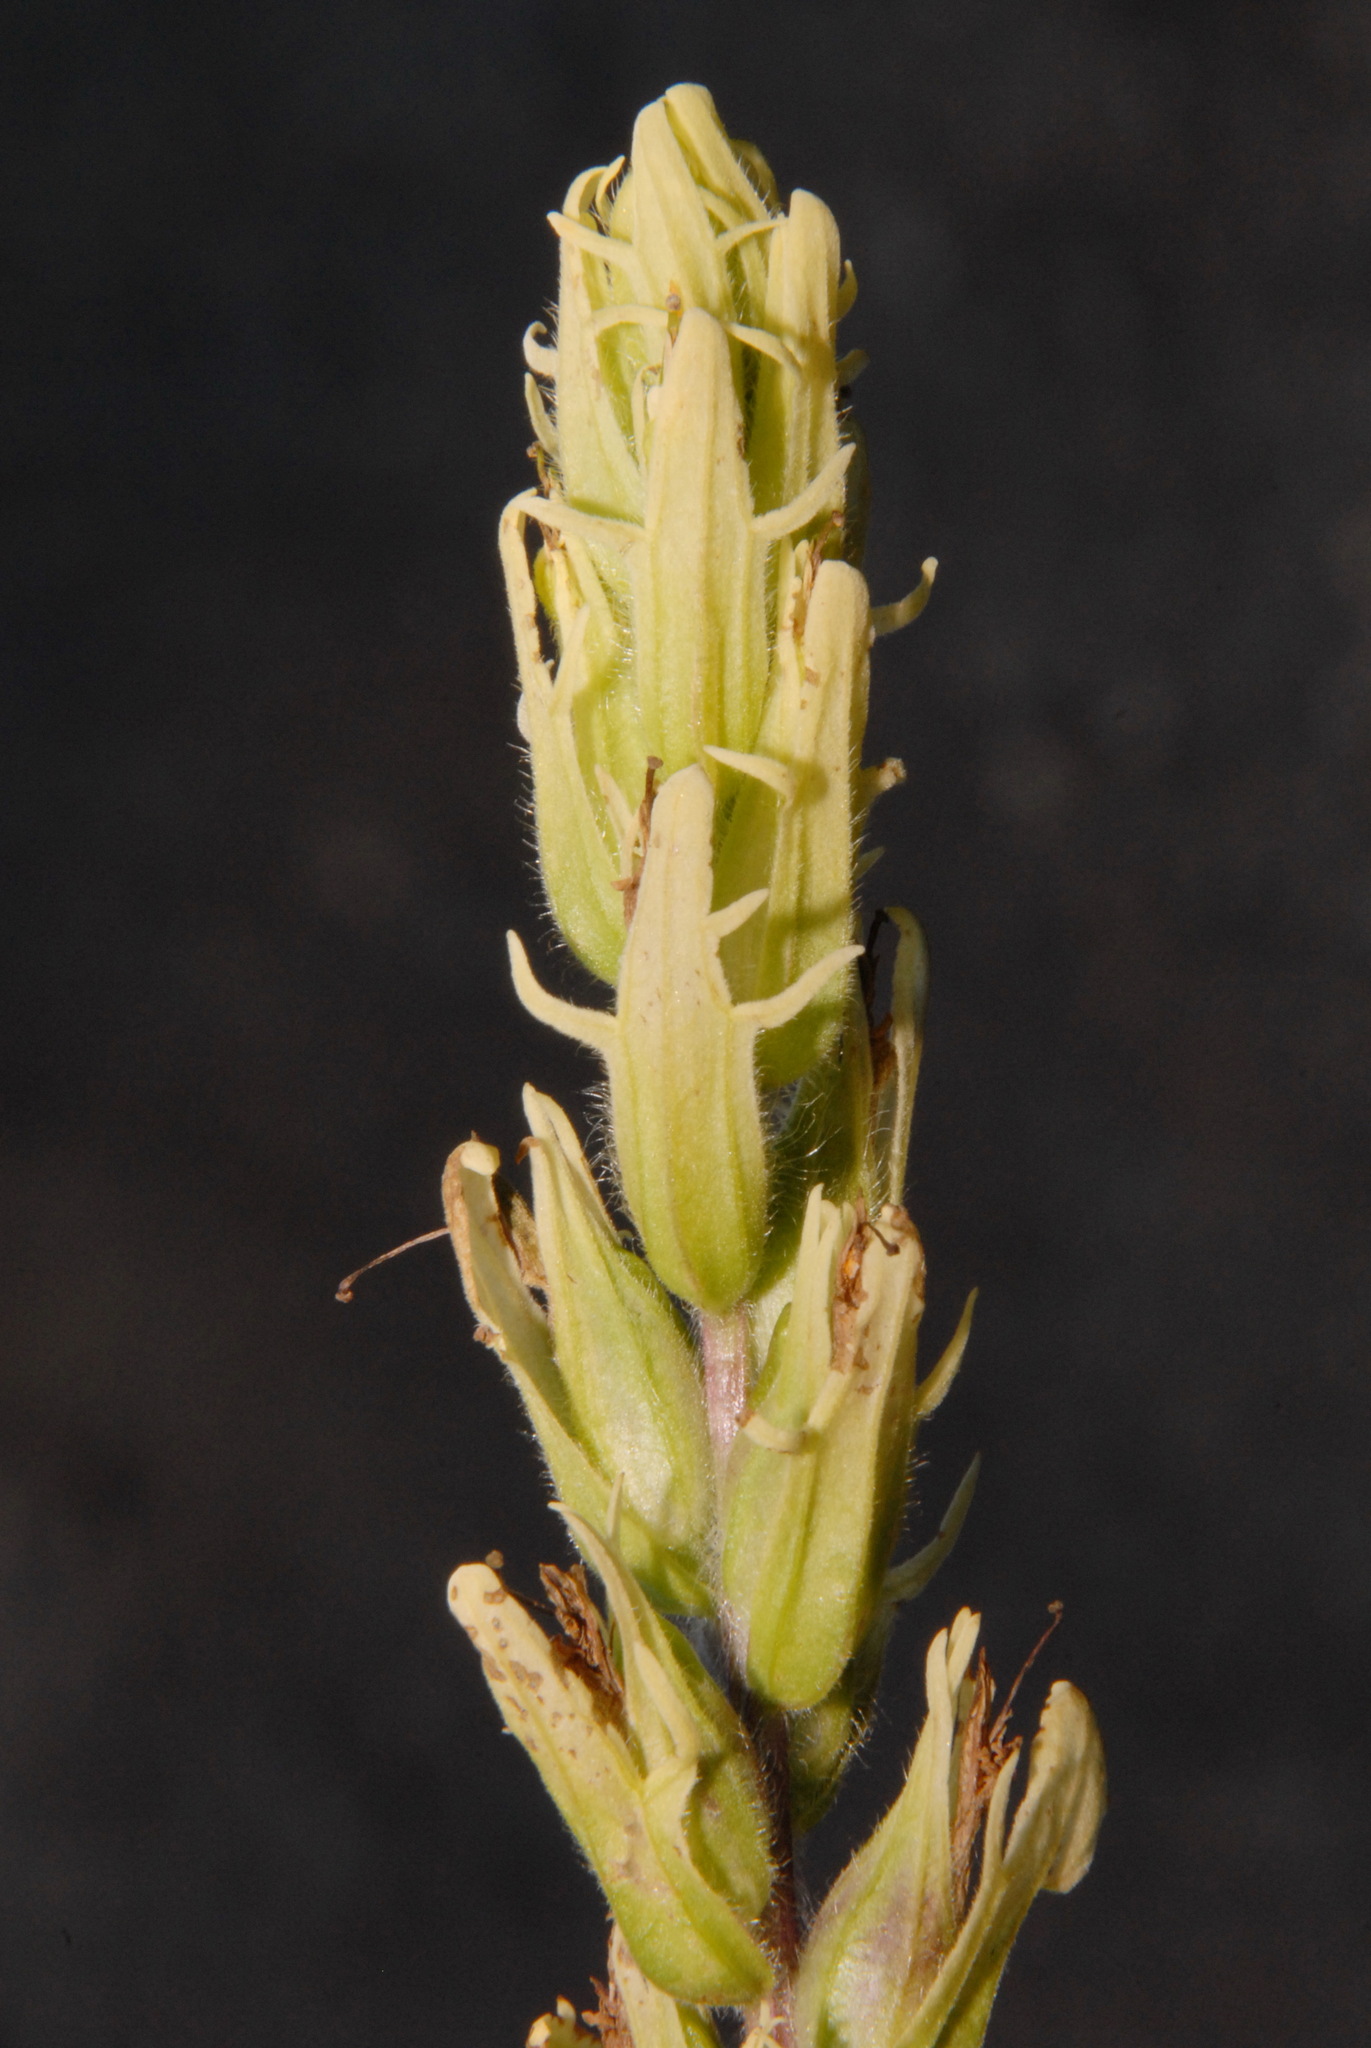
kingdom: Plantae
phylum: Tracheophyta
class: Magnoliopsida
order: Lamiales
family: Orobanchaceae
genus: Castilleja
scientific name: Castilleja pallida
